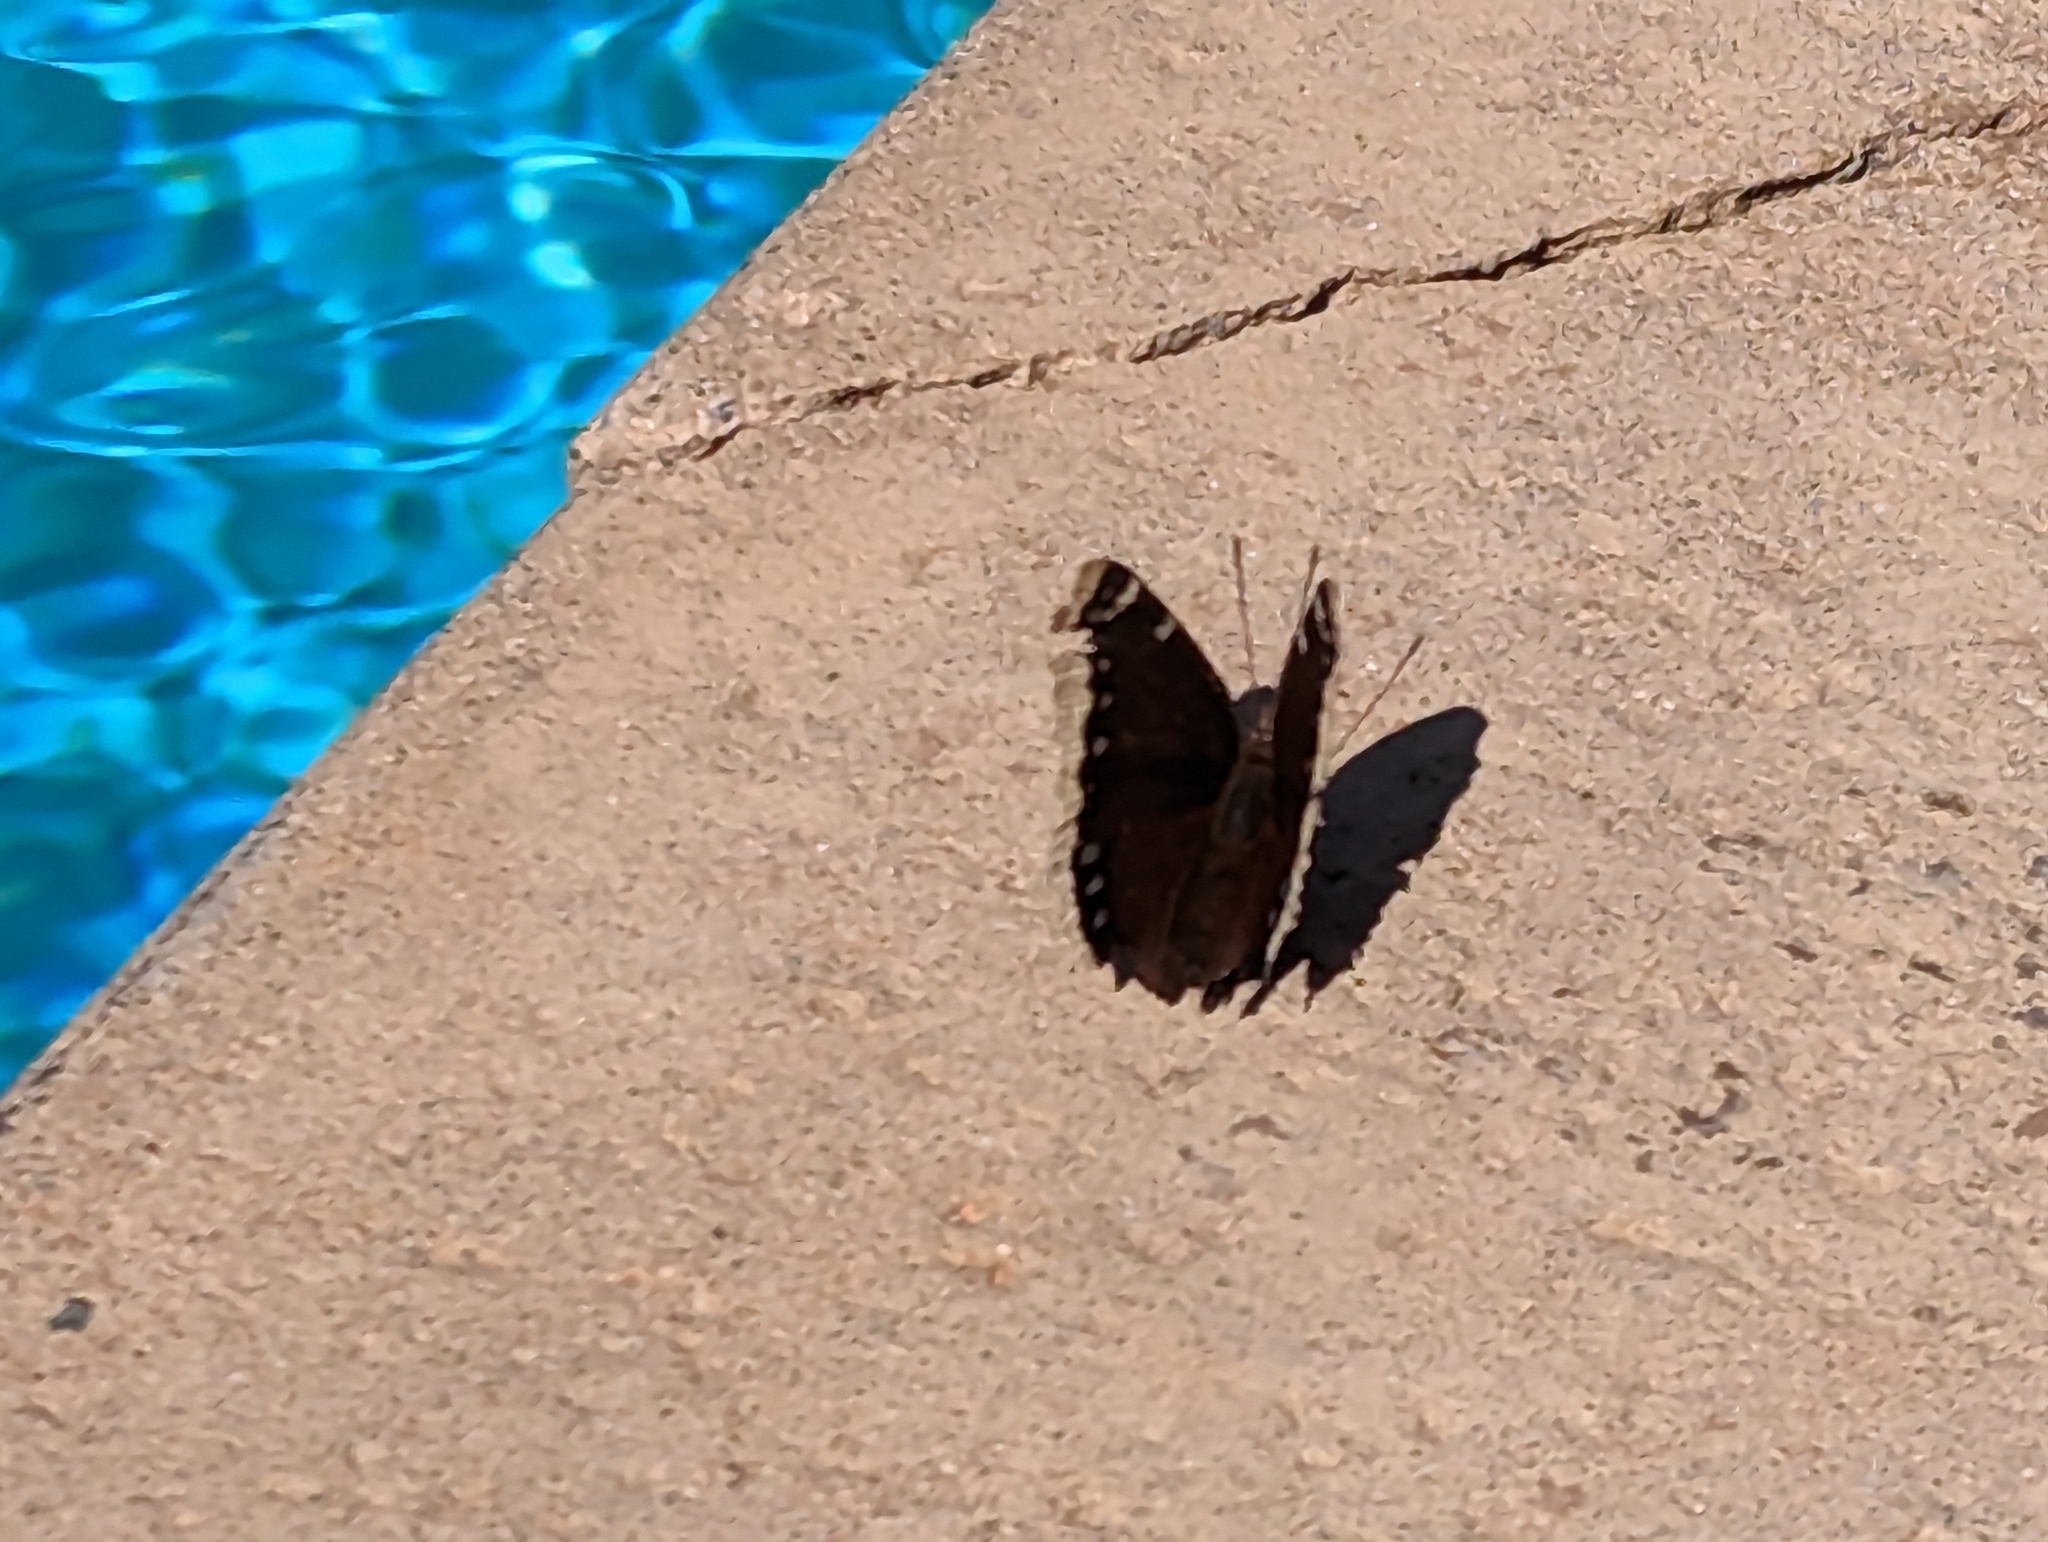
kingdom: Animalia
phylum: Arthropoda
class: Insecta
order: Lepidoptera
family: Nymphalidae
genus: Nymphalis
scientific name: Nymphalis antiopa
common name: Camberwell beauty
